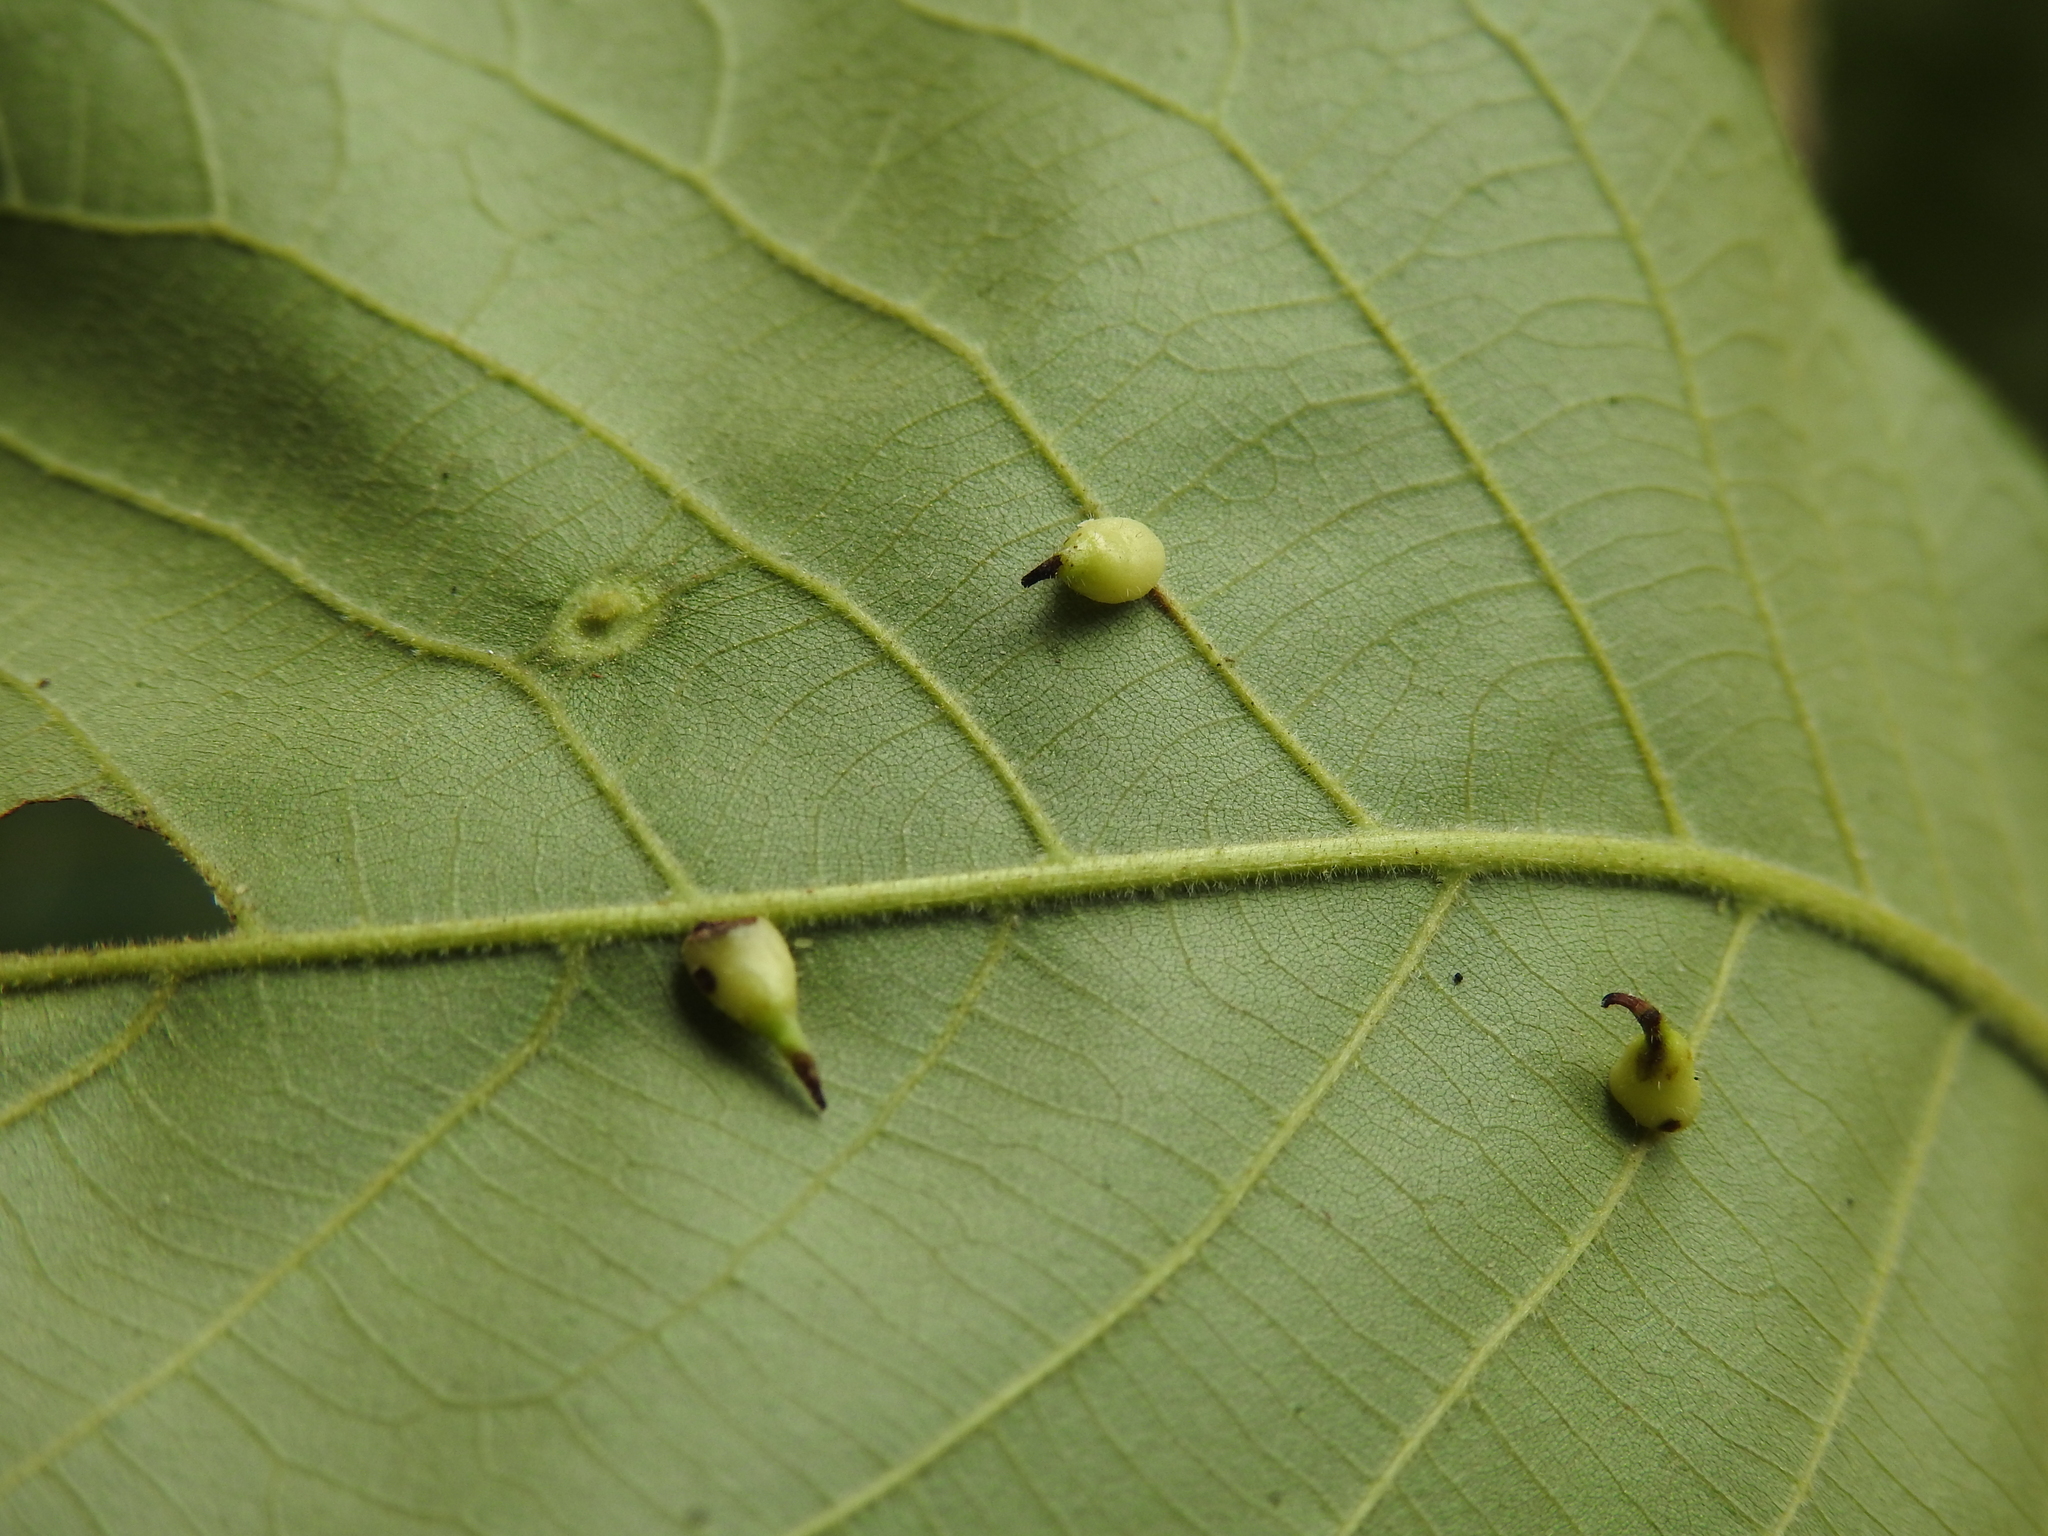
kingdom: Animalia
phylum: Arthropoda
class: Insecta
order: Diptera
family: Cecidomyiidae
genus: Caryomyia
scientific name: Caryomyia inclinata
